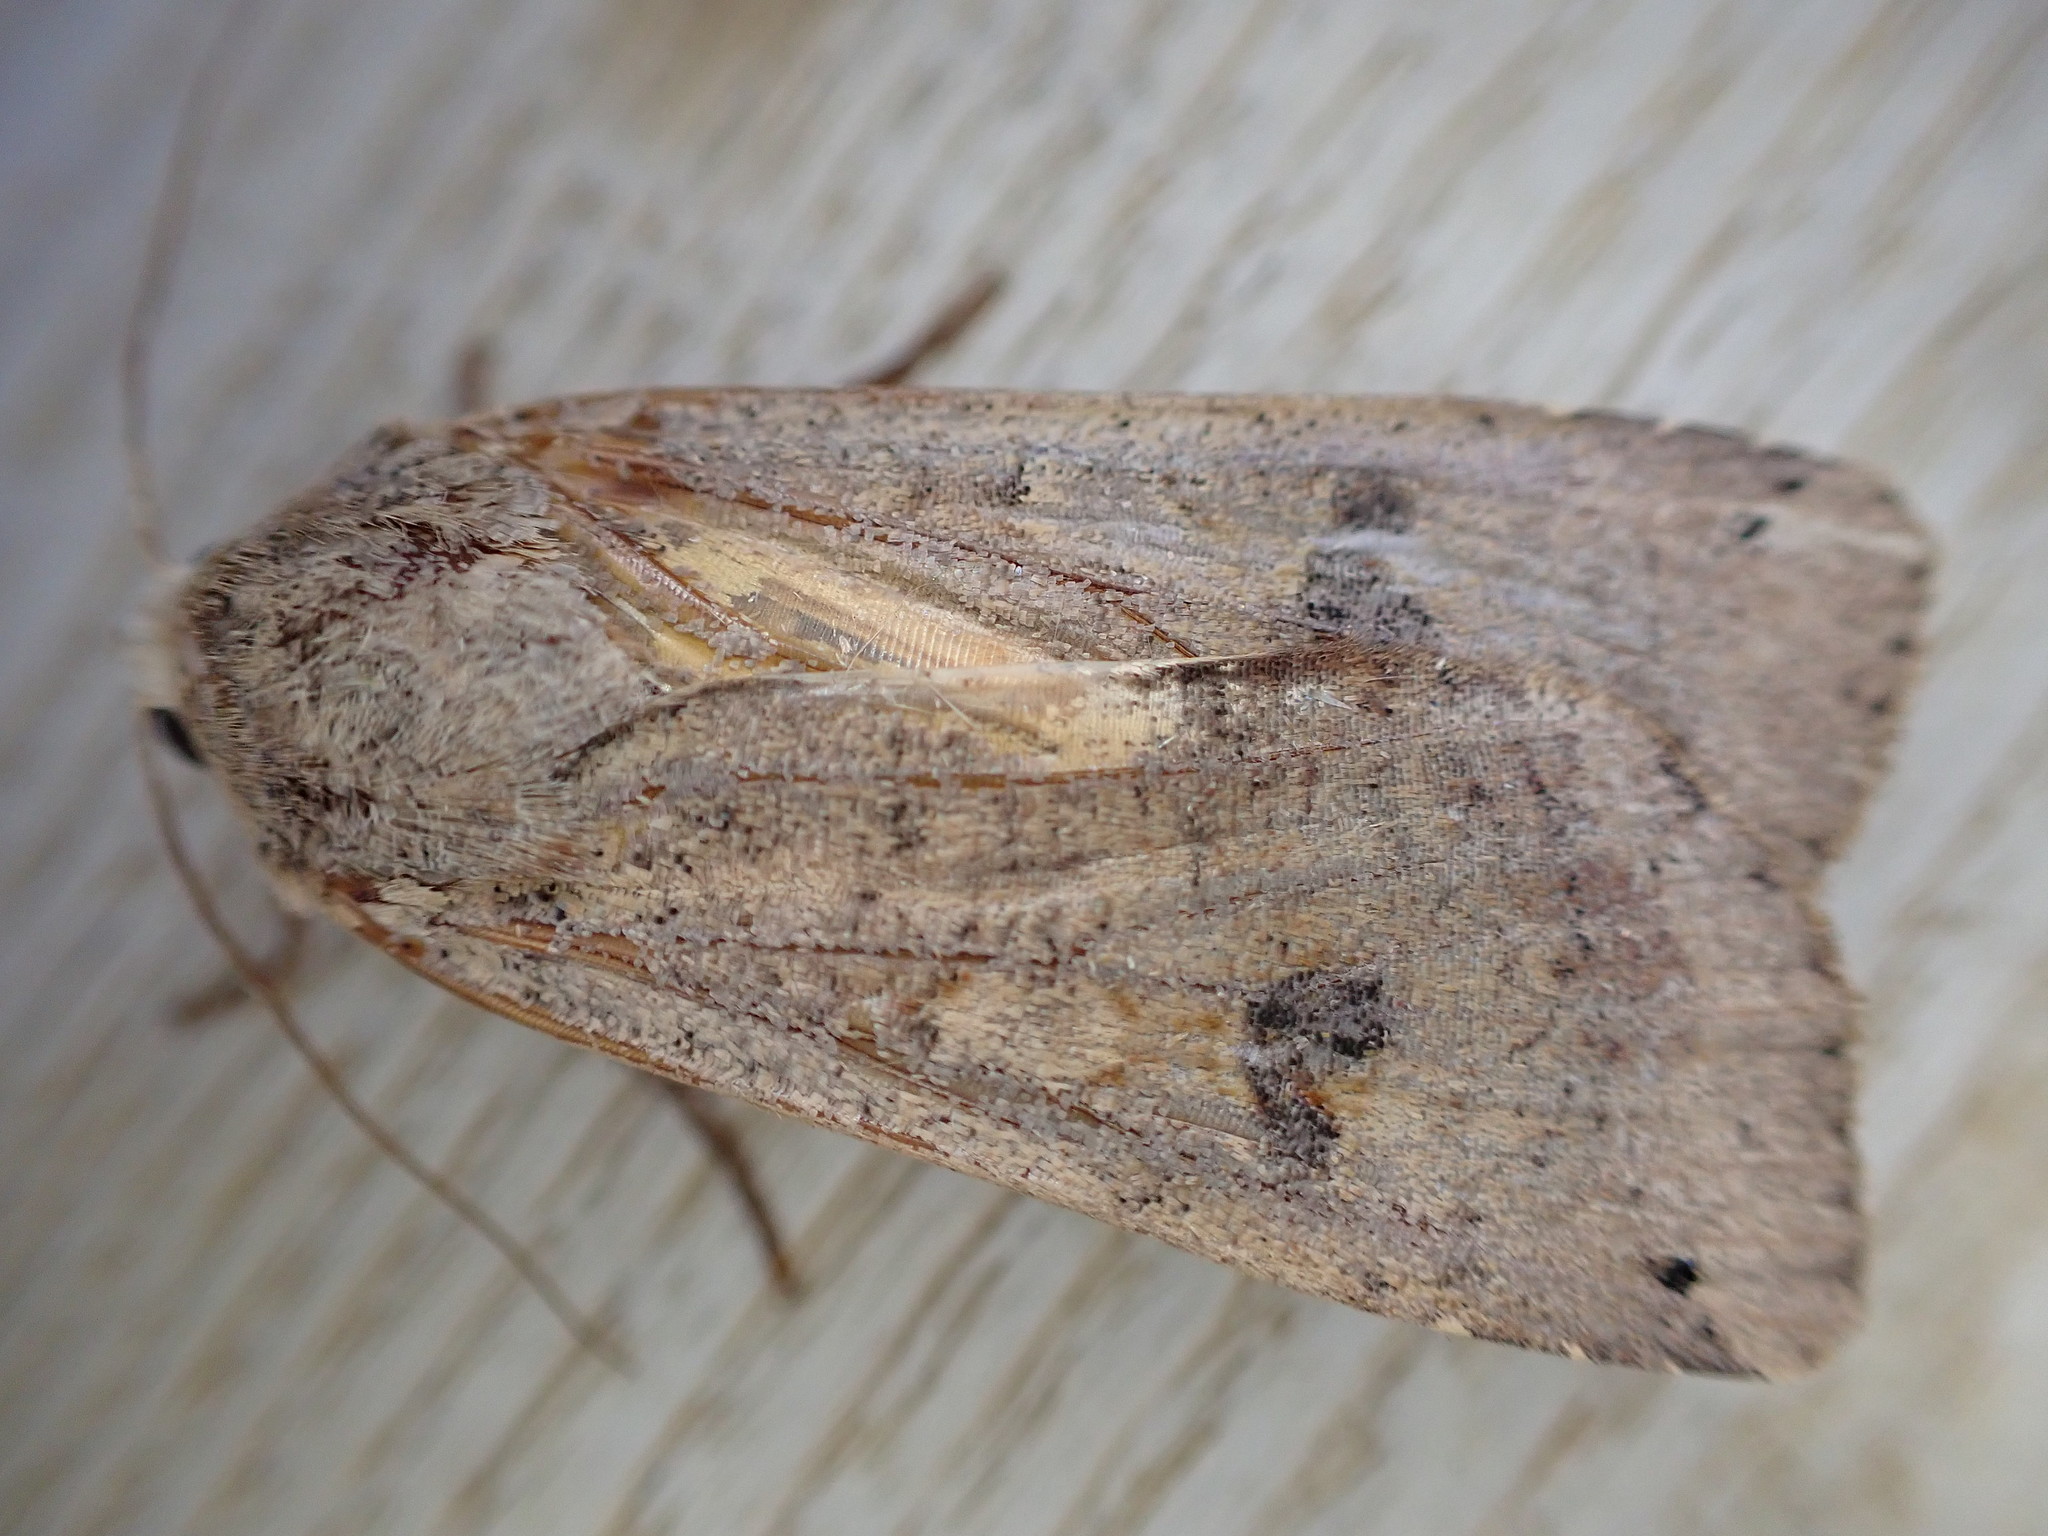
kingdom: Animalia
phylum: Arthropoda
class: Insecta
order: Lepidoptera
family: Noctuidae
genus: Noctua
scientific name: Noctua pronuba
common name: Large yellow underwing
